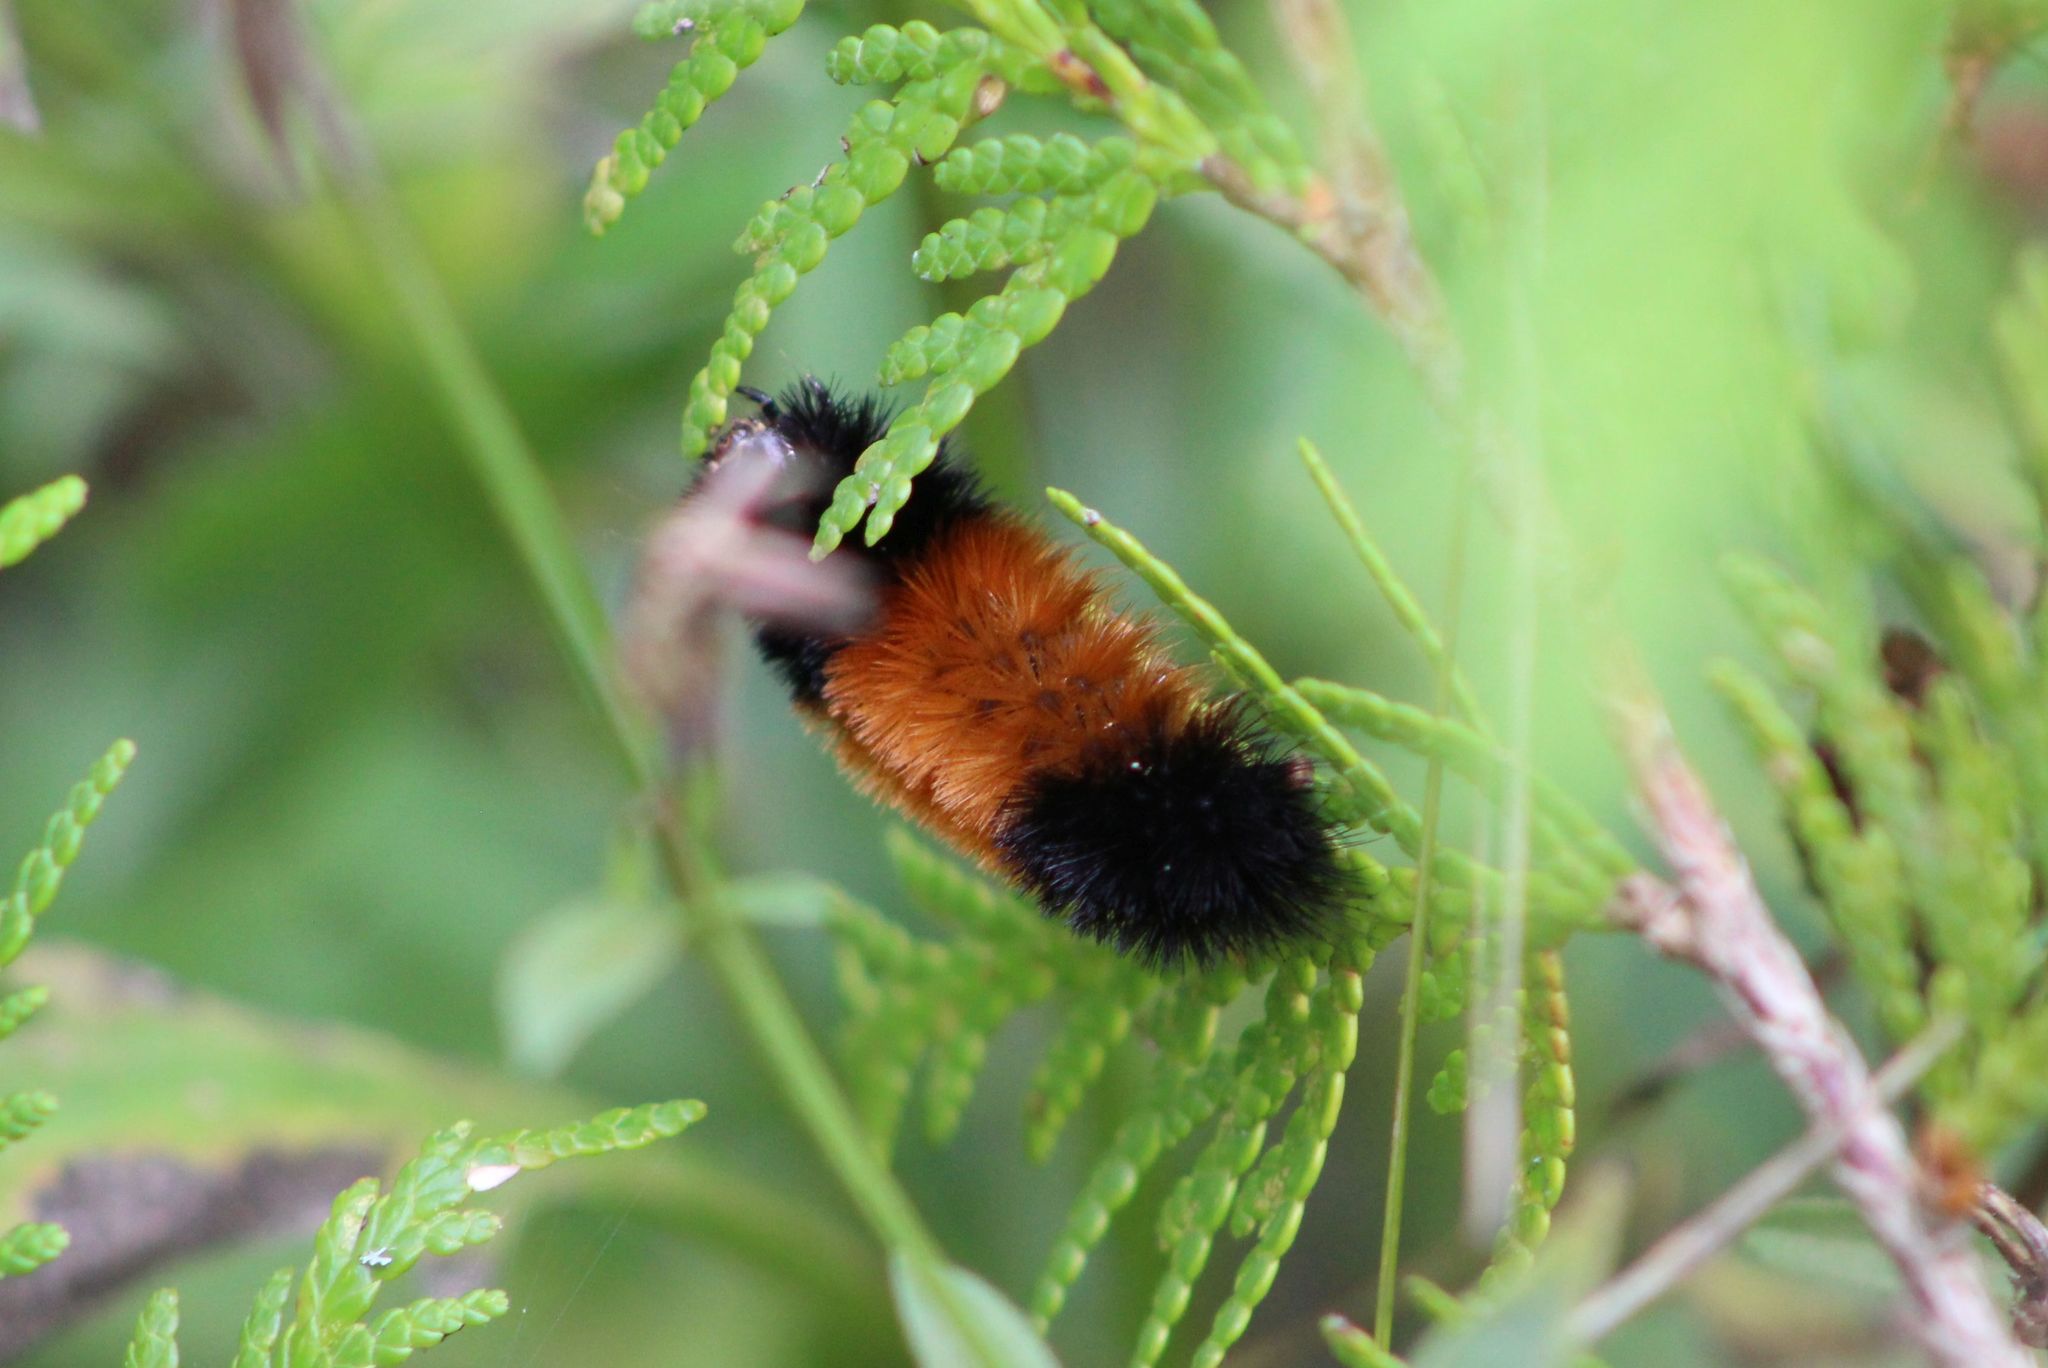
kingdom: Animalia
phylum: Arthropoda
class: Insecta
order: Lepidoptera
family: Erebidae
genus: Pyrrharctia
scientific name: Pyrrharctia isabella
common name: Isabella tiger moth
